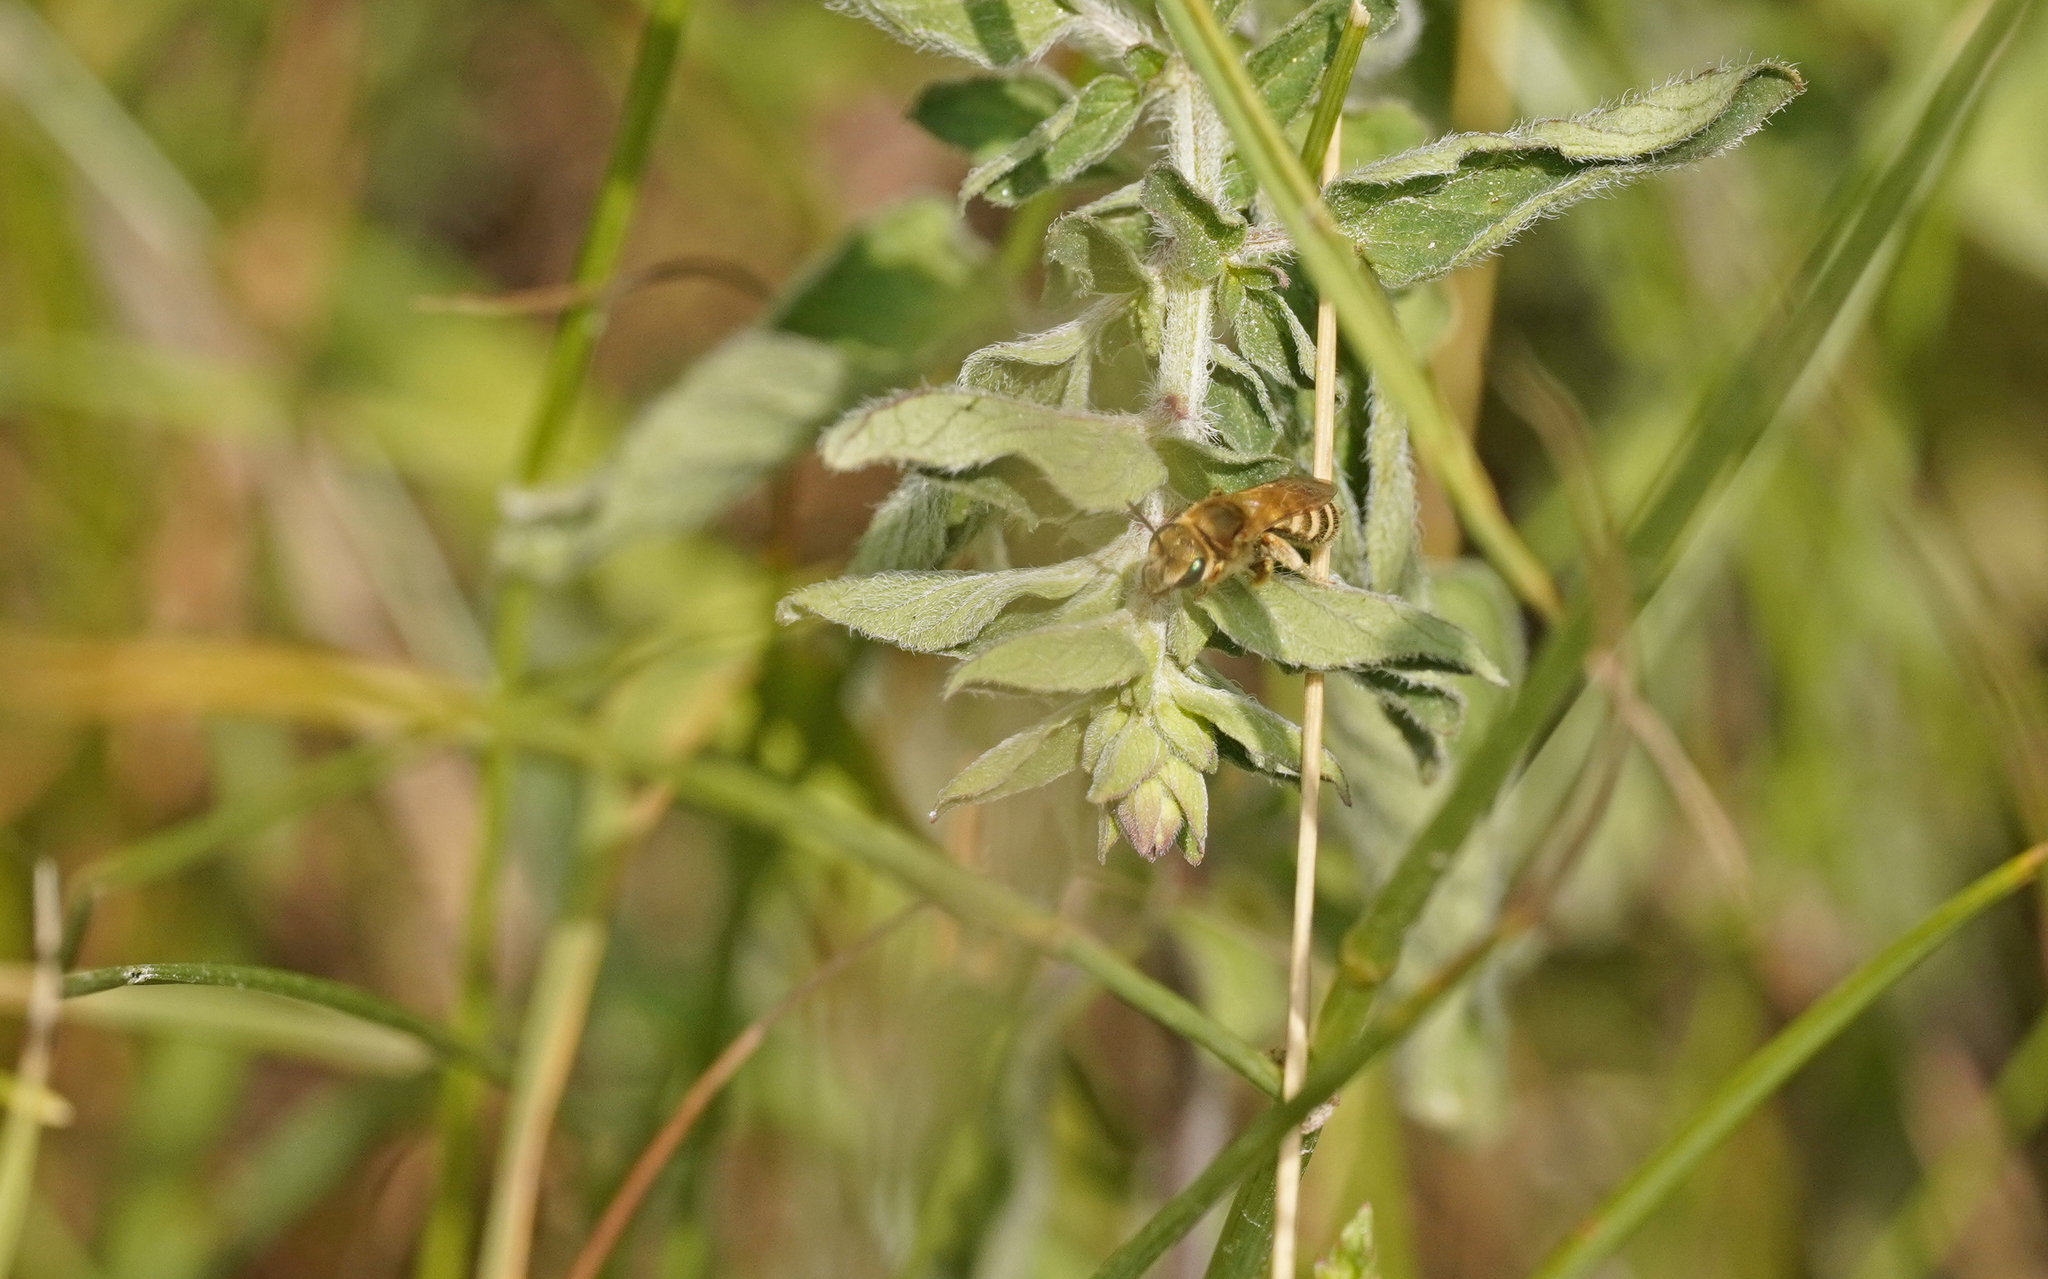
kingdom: Animalia
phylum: Arthropoda
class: Insecta
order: Hymenoptera
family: Halictidae
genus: Halictus
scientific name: Halictus subauratus
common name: Golden furrow bee
